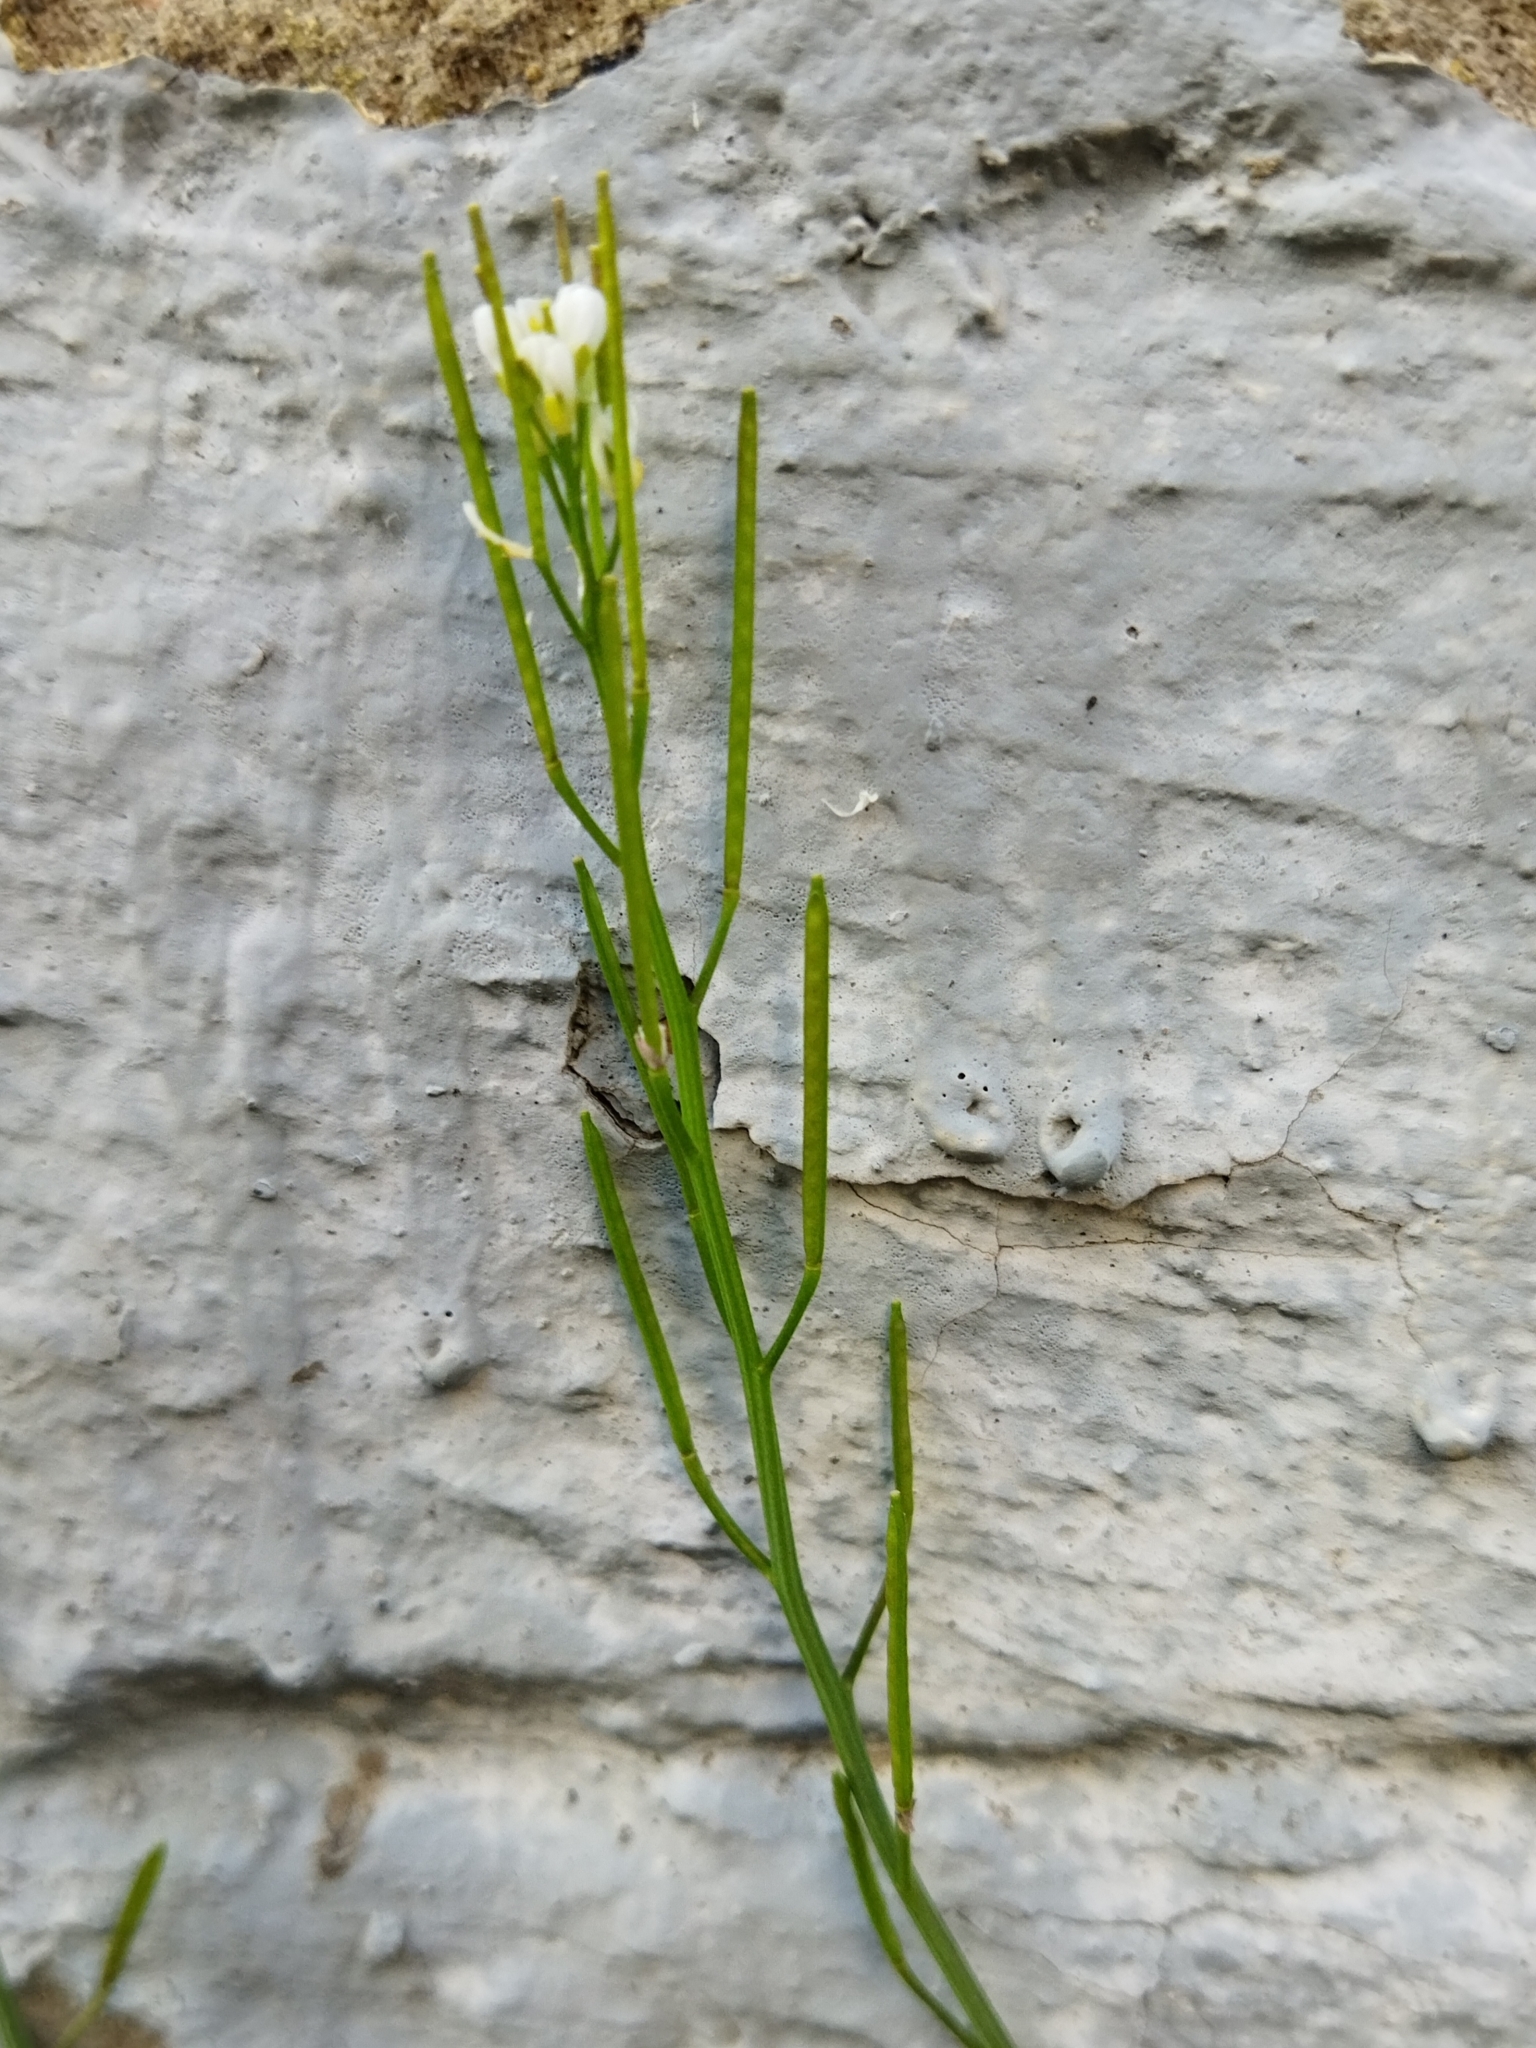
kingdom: Plantae
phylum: Tracheophyta
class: Magnoliopsida
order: Brassicales
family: Brassicaceae
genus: Cardamine
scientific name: Cardamine hirsuta
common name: Hairy bittercress
